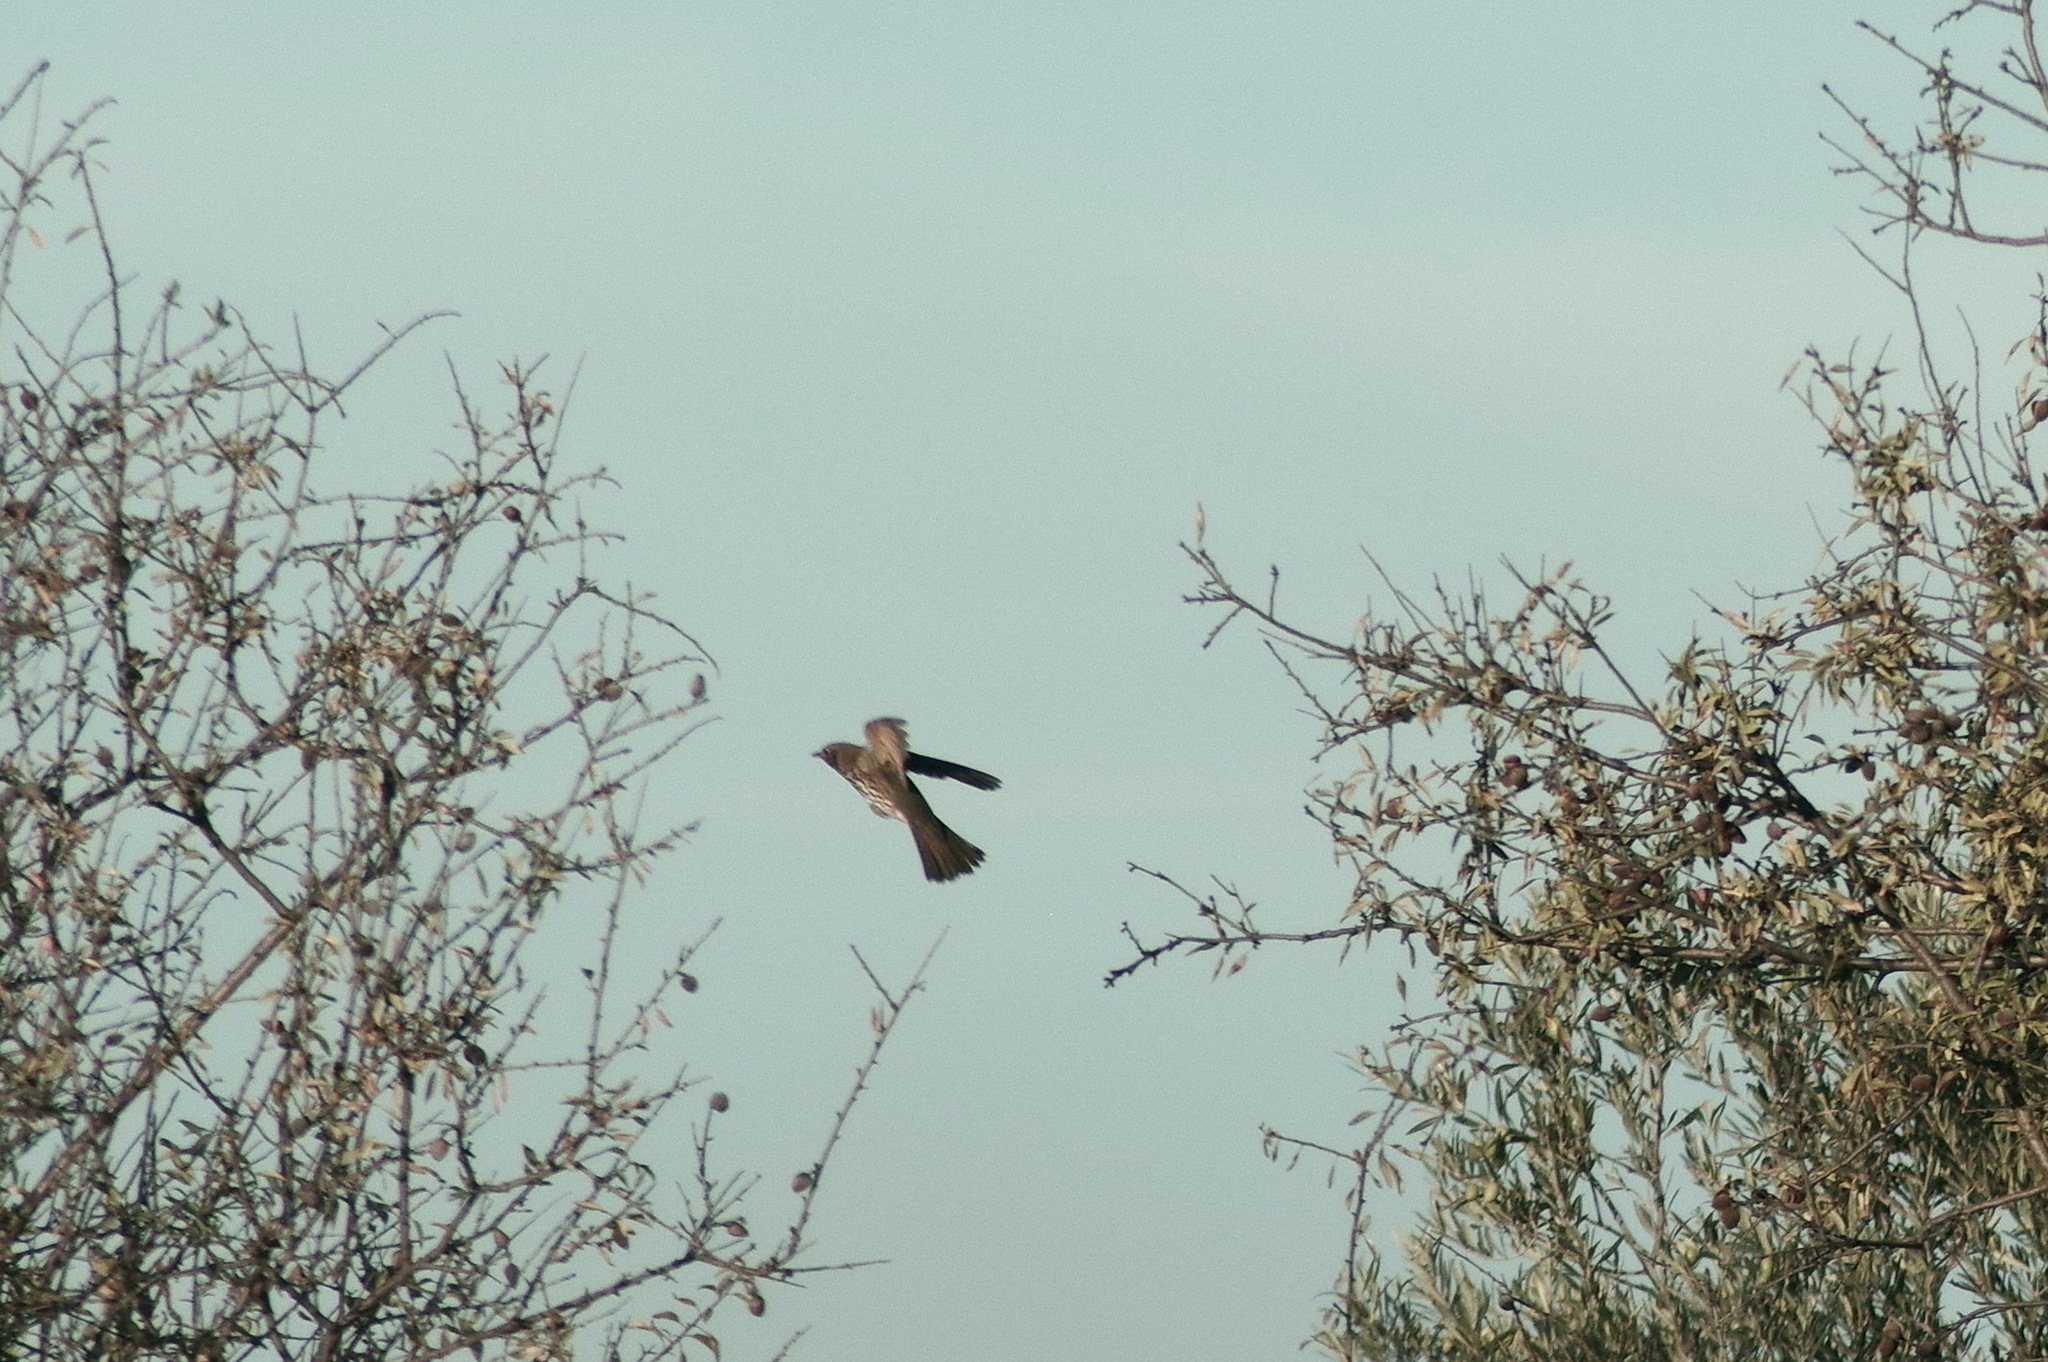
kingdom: Animalia
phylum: Chordata
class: Aves
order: Passeriformes
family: Turdidae
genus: Turdus
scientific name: Turdus philomelos
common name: Song thrush
